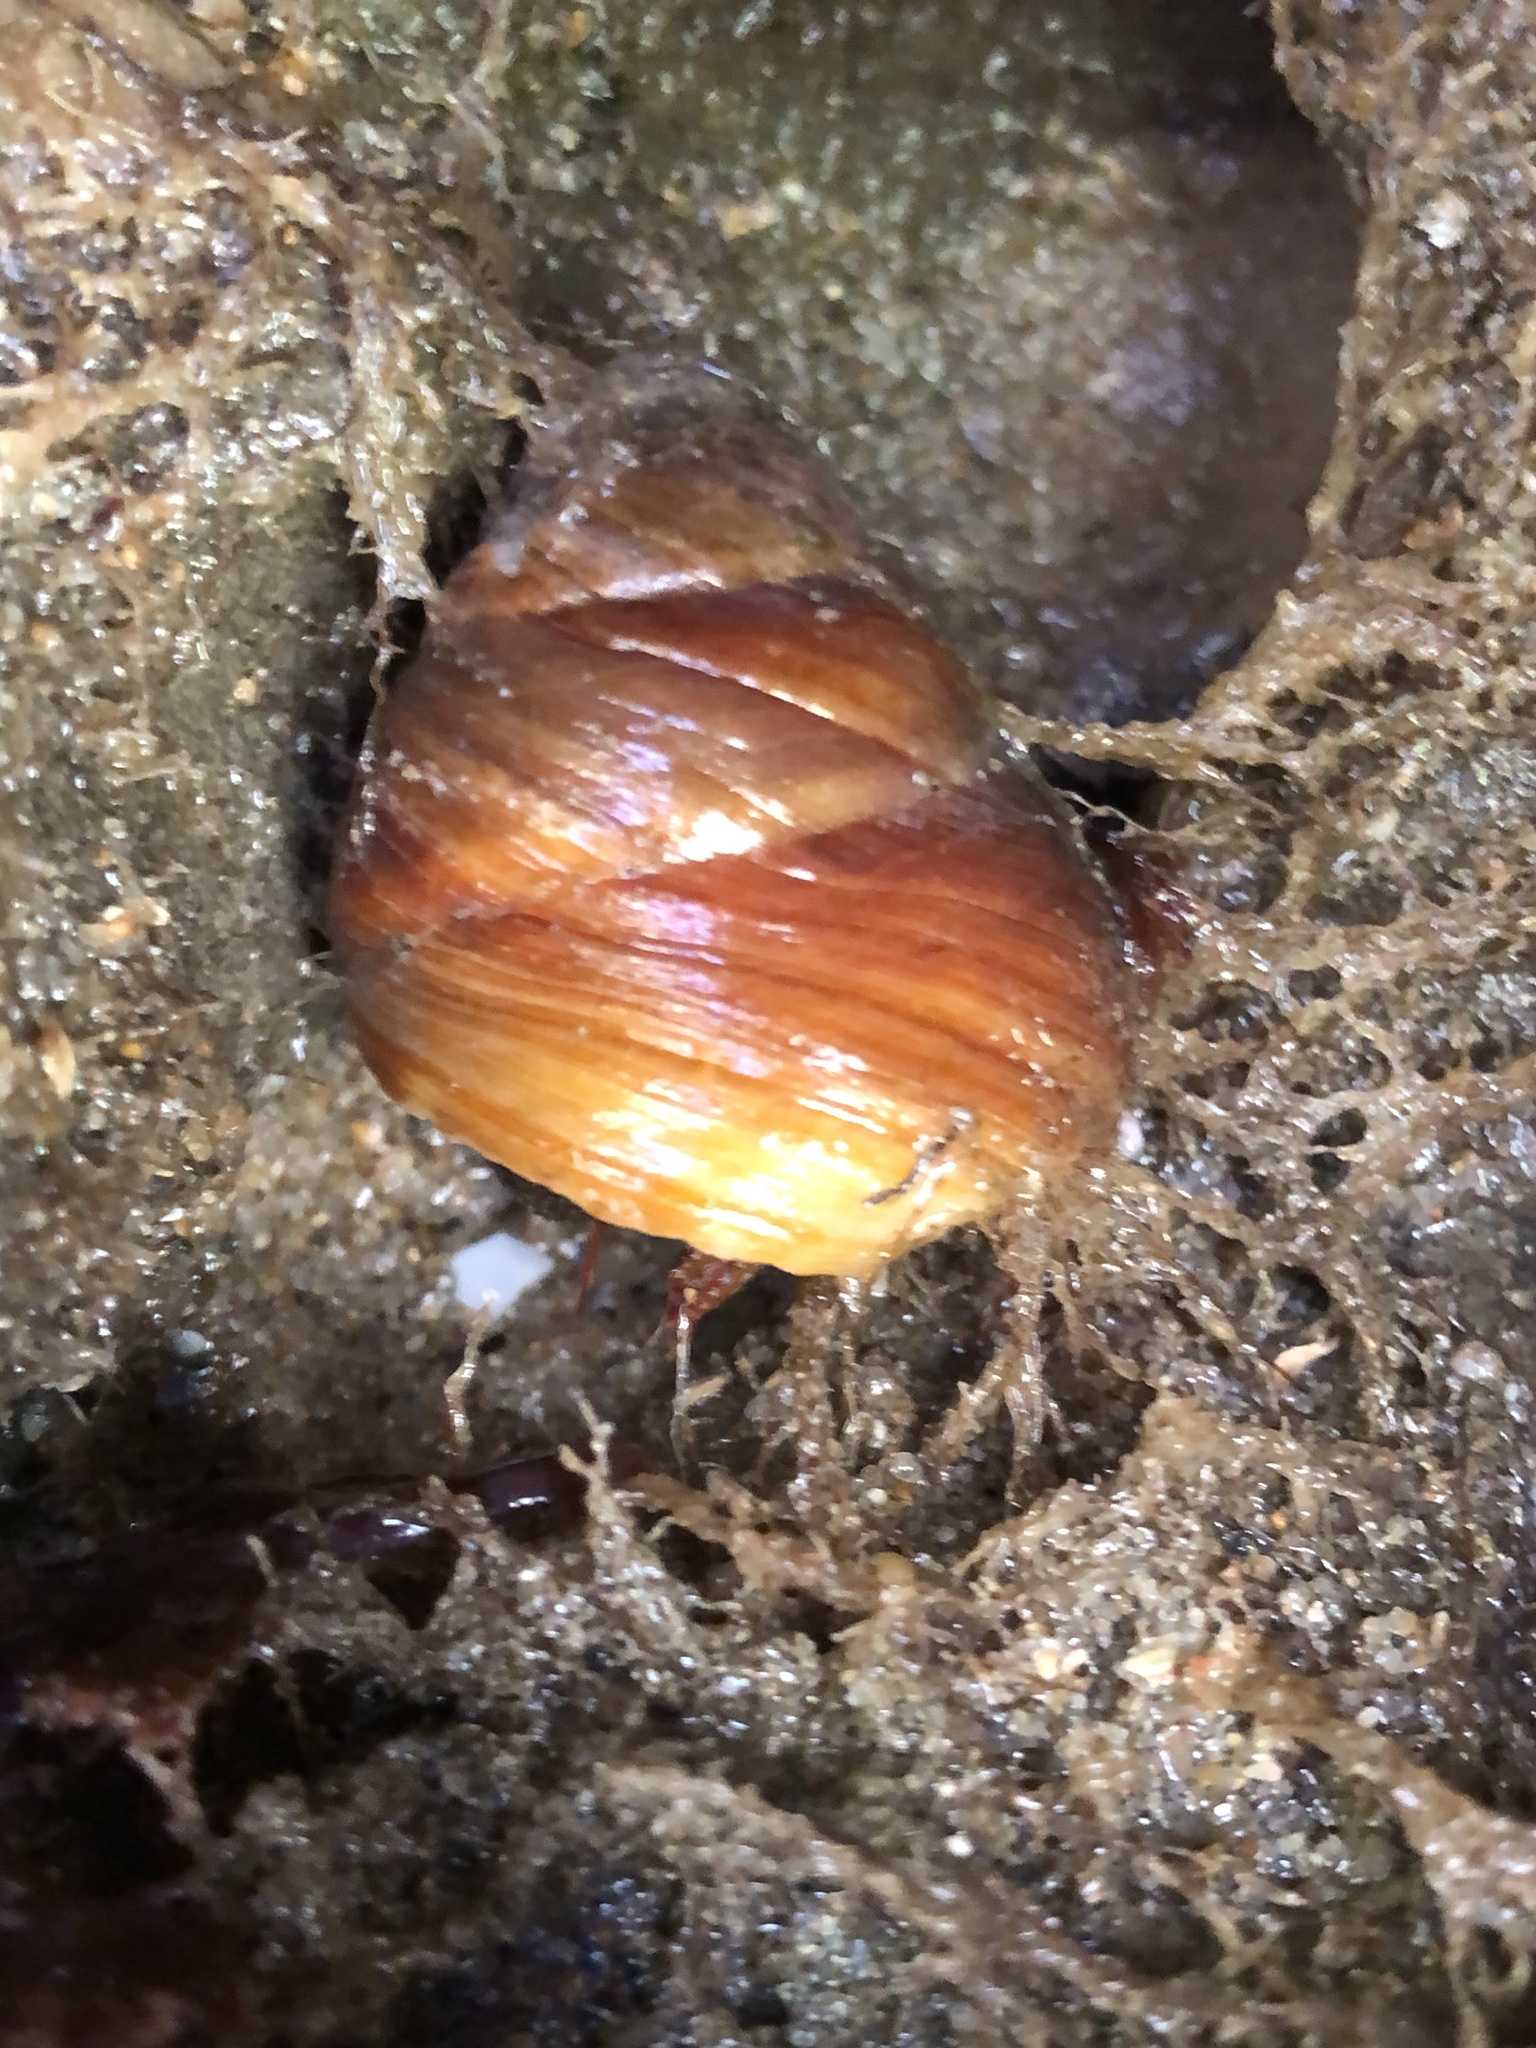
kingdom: Animalia
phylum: Mollusca
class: Gastropoda
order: Trochida
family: Tegulidae
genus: Tegula
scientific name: Tegula brunnea
